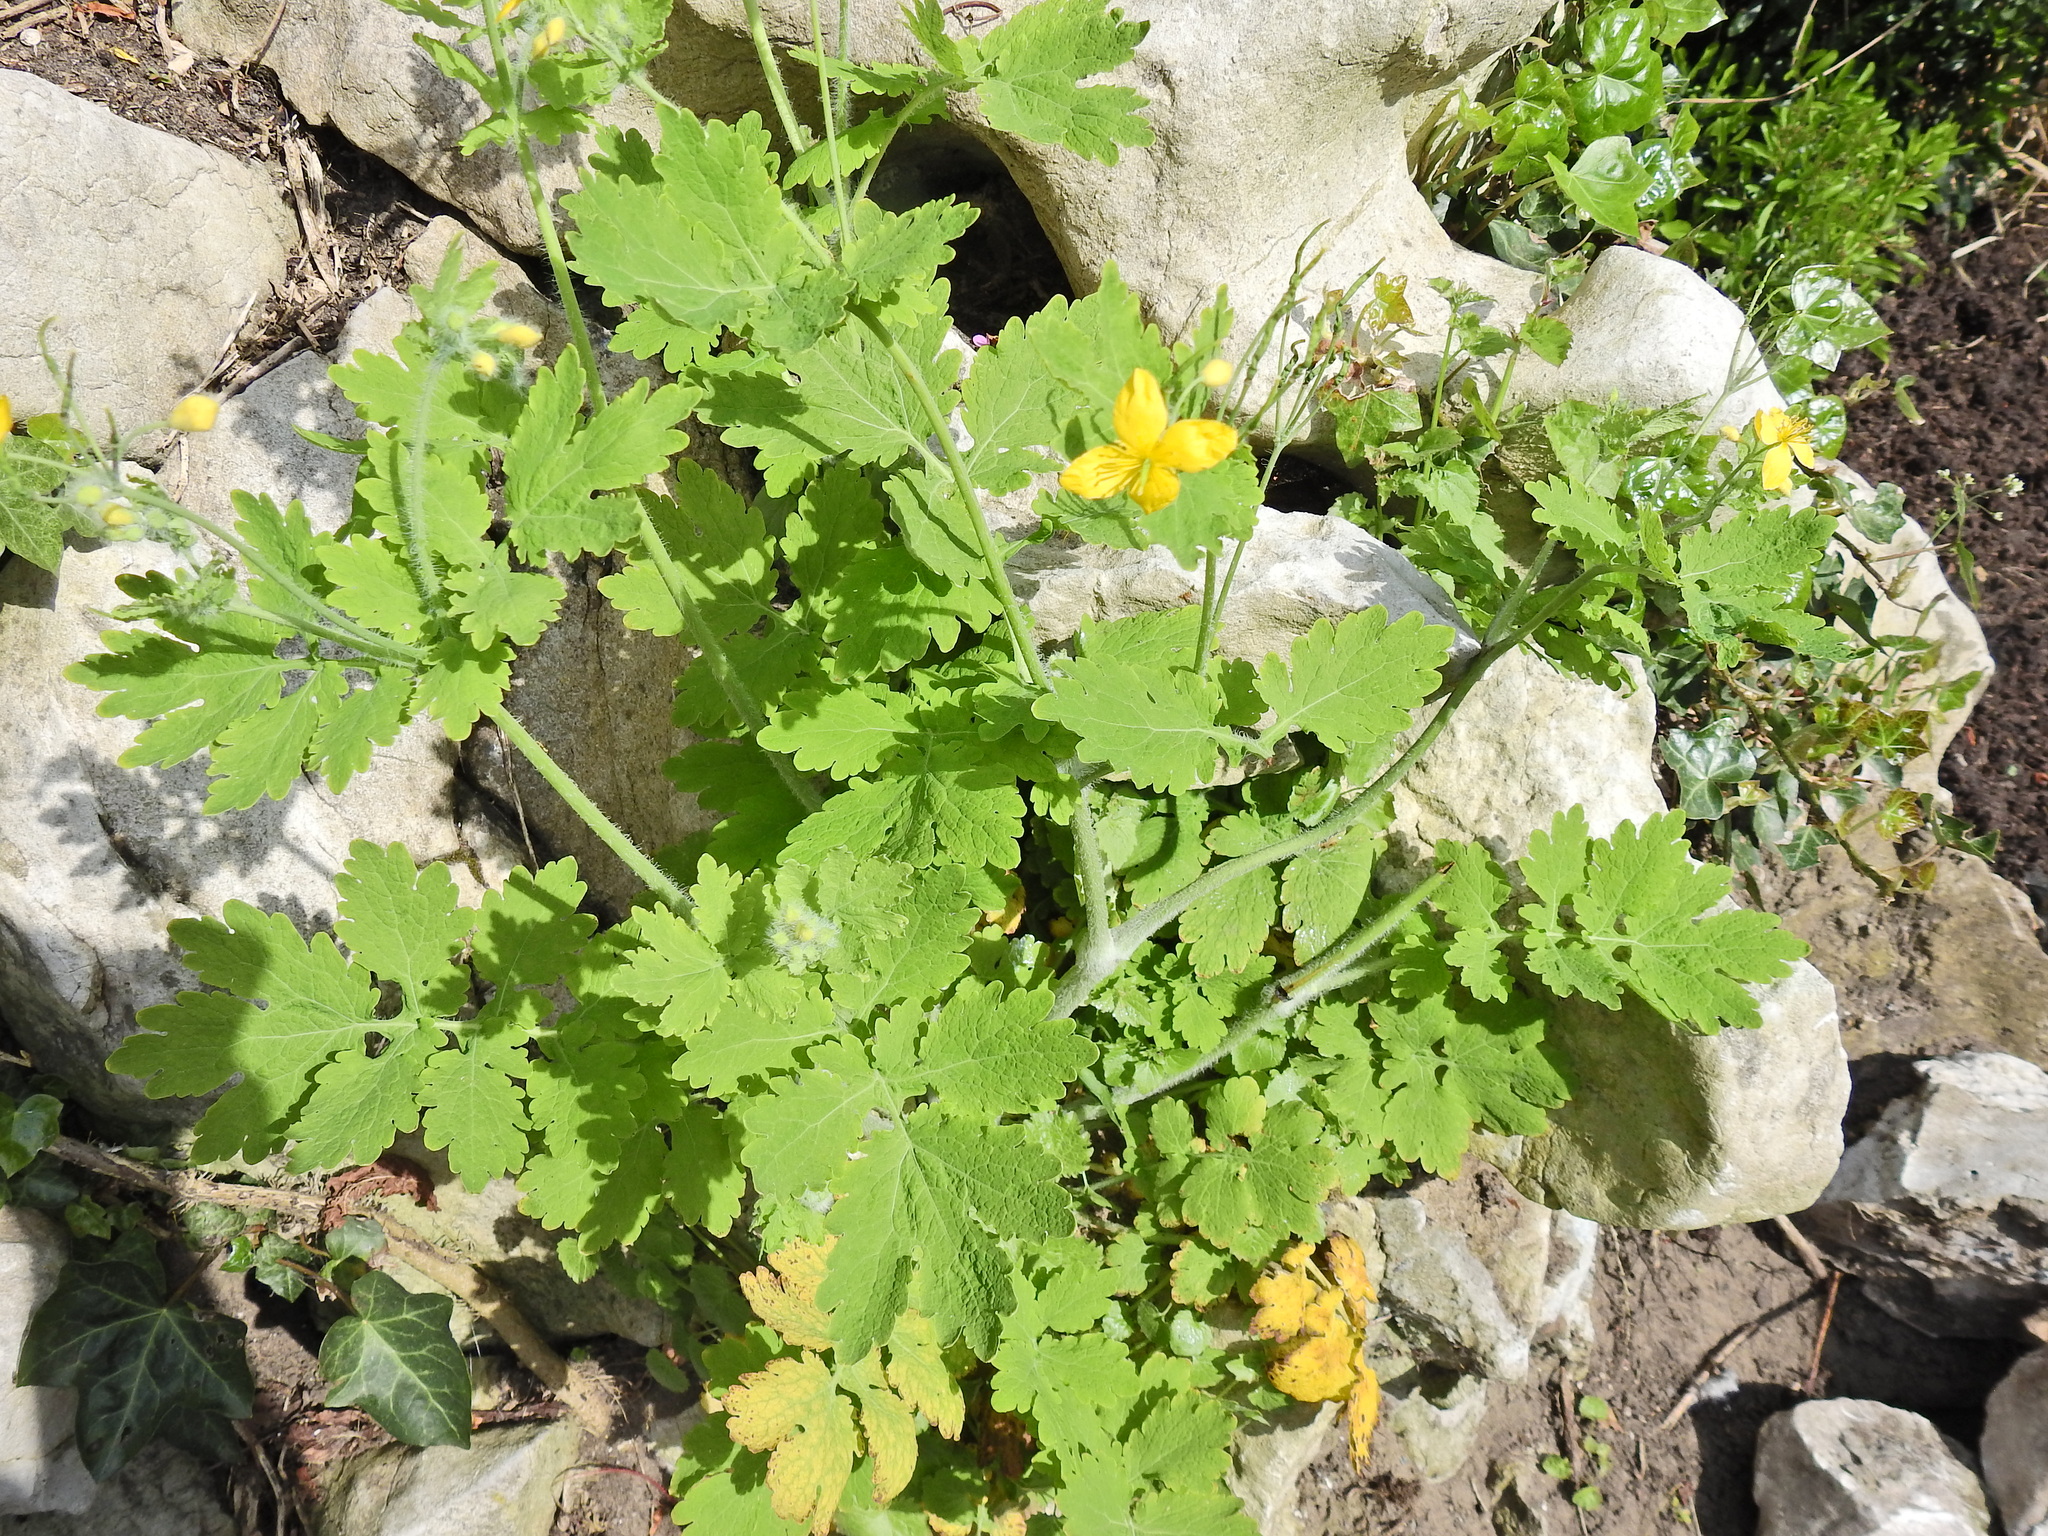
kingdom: Plantae
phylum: Tracheophyta
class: Magnoliopsida
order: Ranunculales
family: Papaveraceae
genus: Chelidonium
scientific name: Chelidonium majus
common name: Greater celandine
